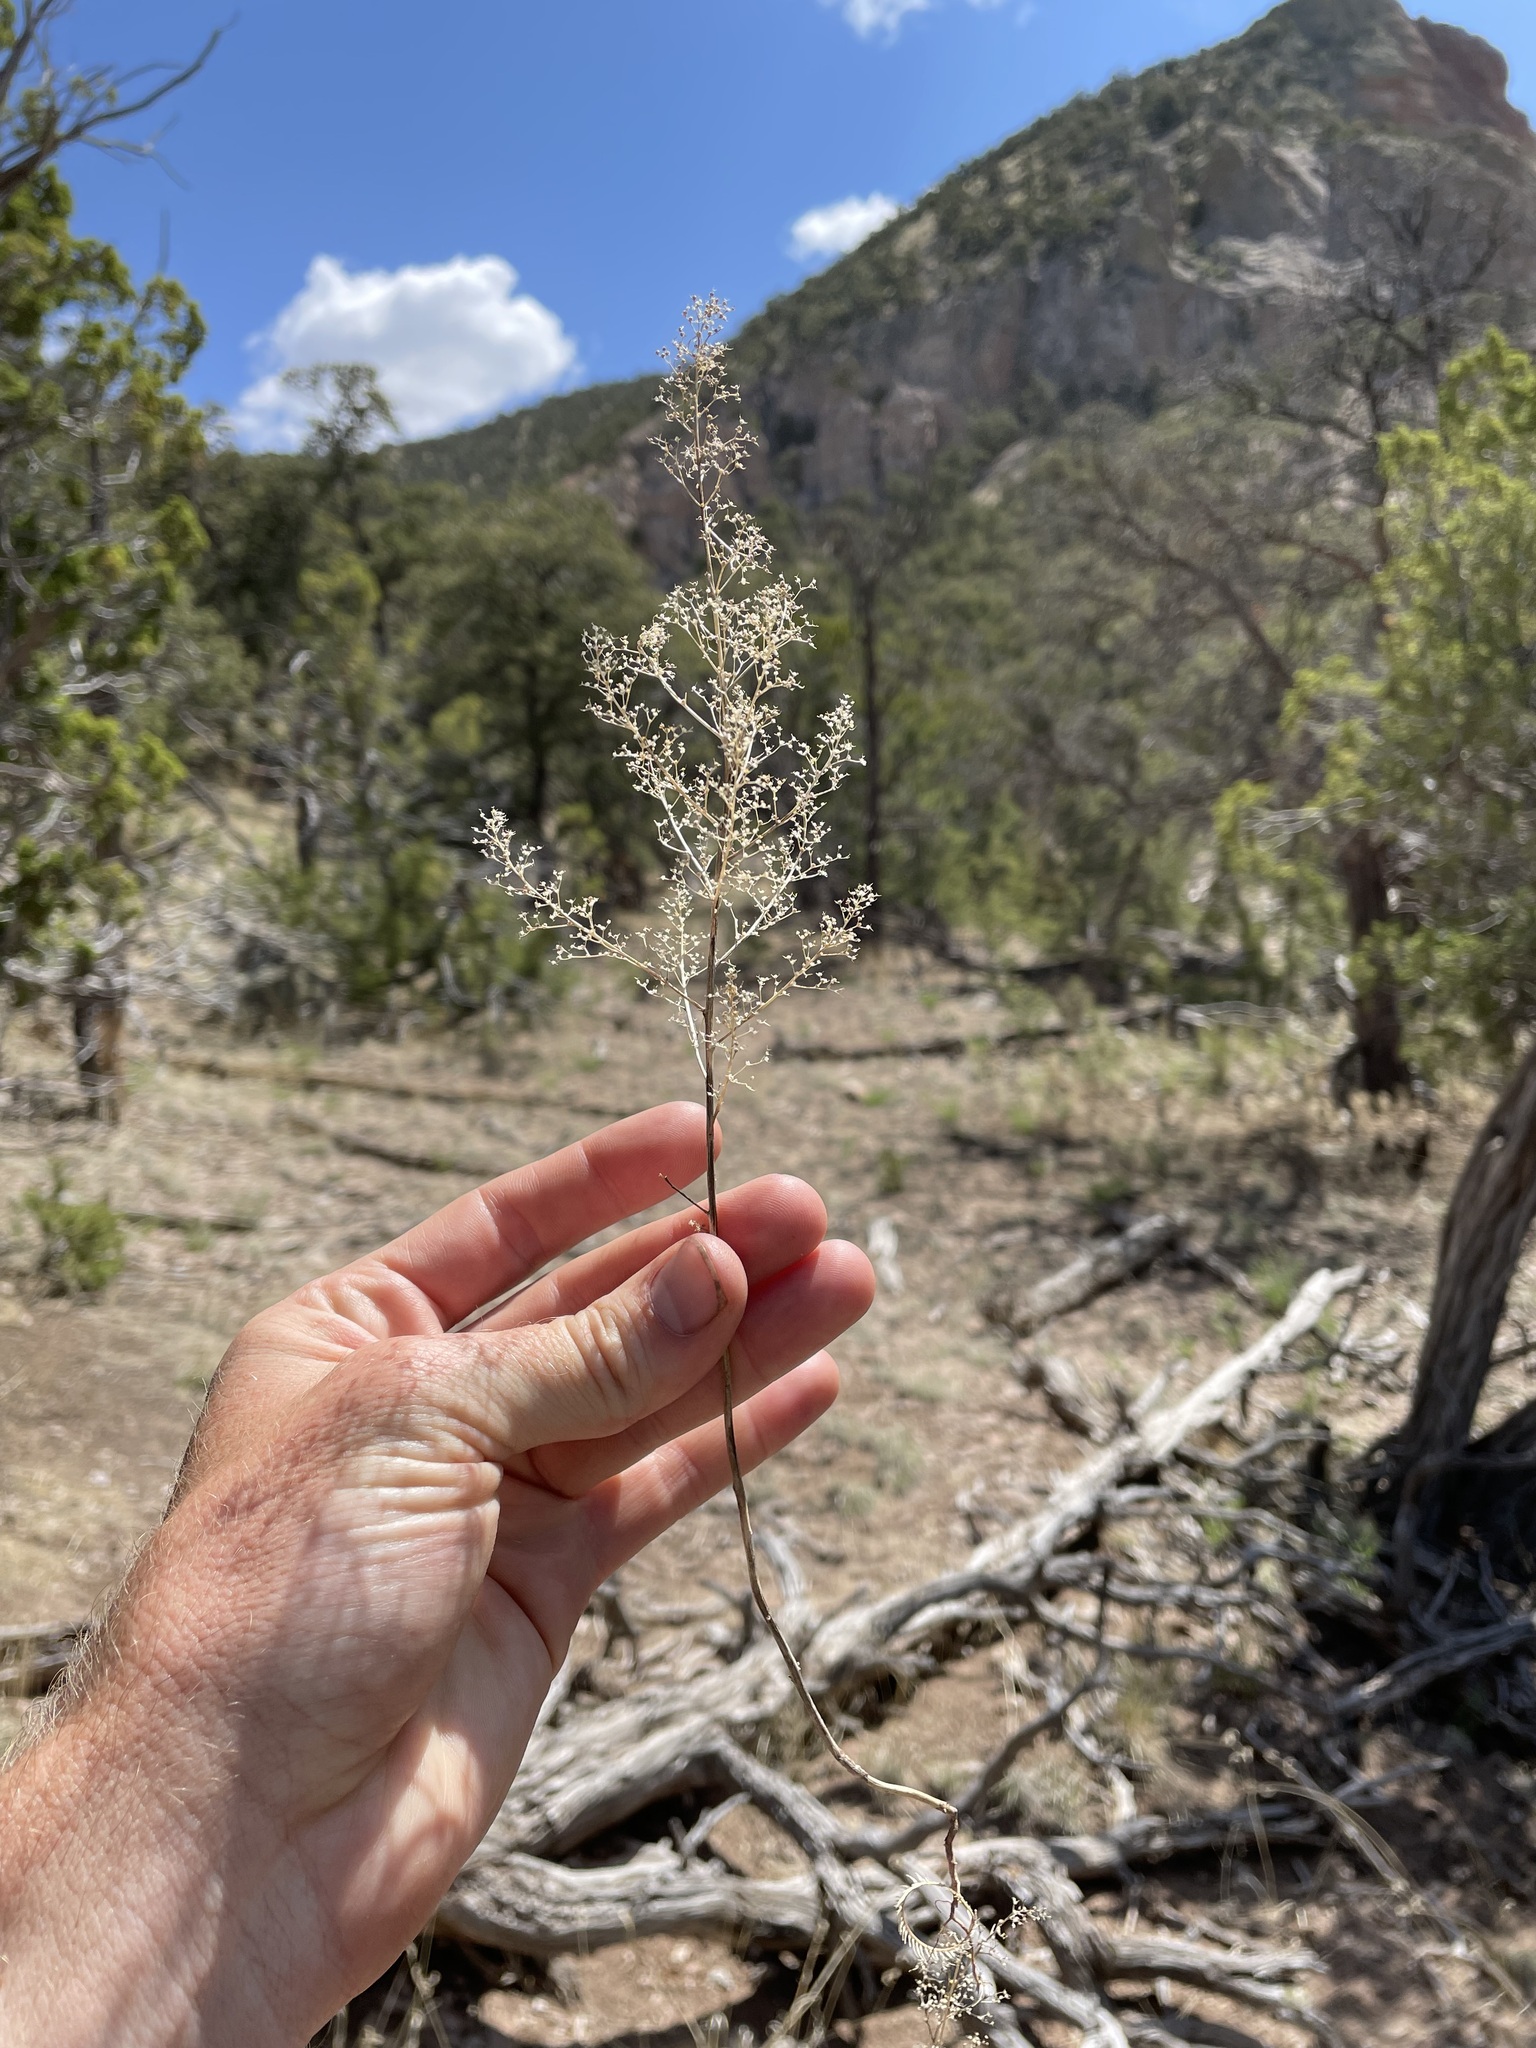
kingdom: Plantae
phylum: Tracheophyta
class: Magnoliopsida
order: Caryophyllales
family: Amaranthaceae
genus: Dysphania
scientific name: Dysphania incisa
